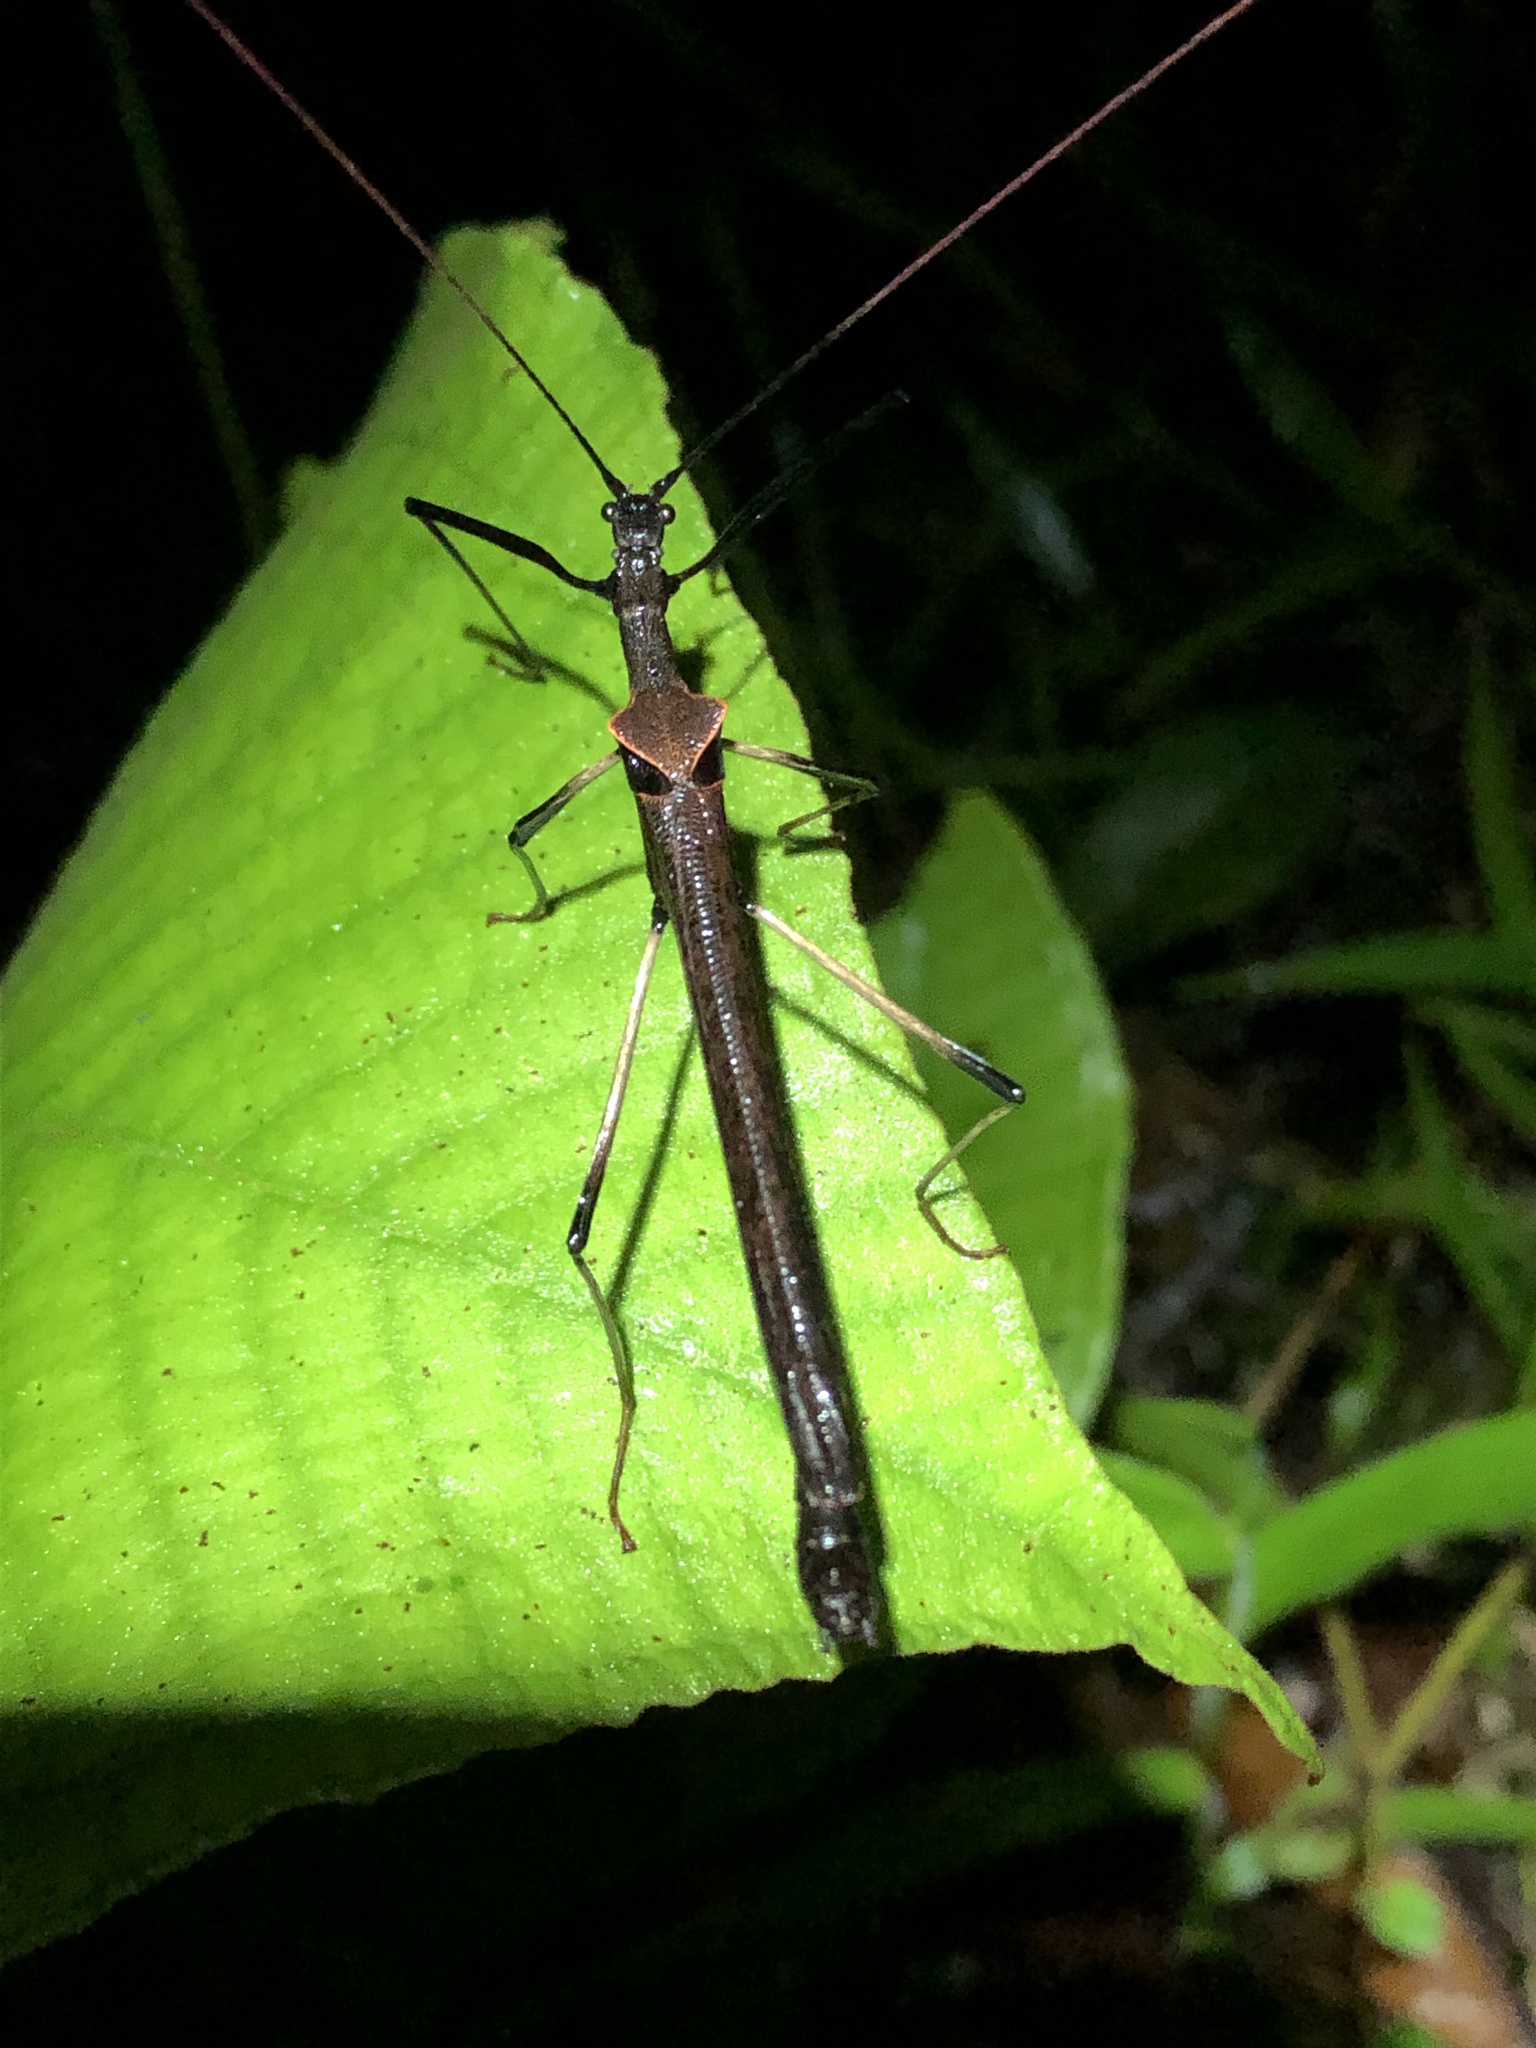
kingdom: Animalia
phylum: Arthropoda
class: Insecta
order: Phasmida
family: Pseudophasmatidae
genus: Pseudophasma
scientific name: Pseudophasma bolivari
